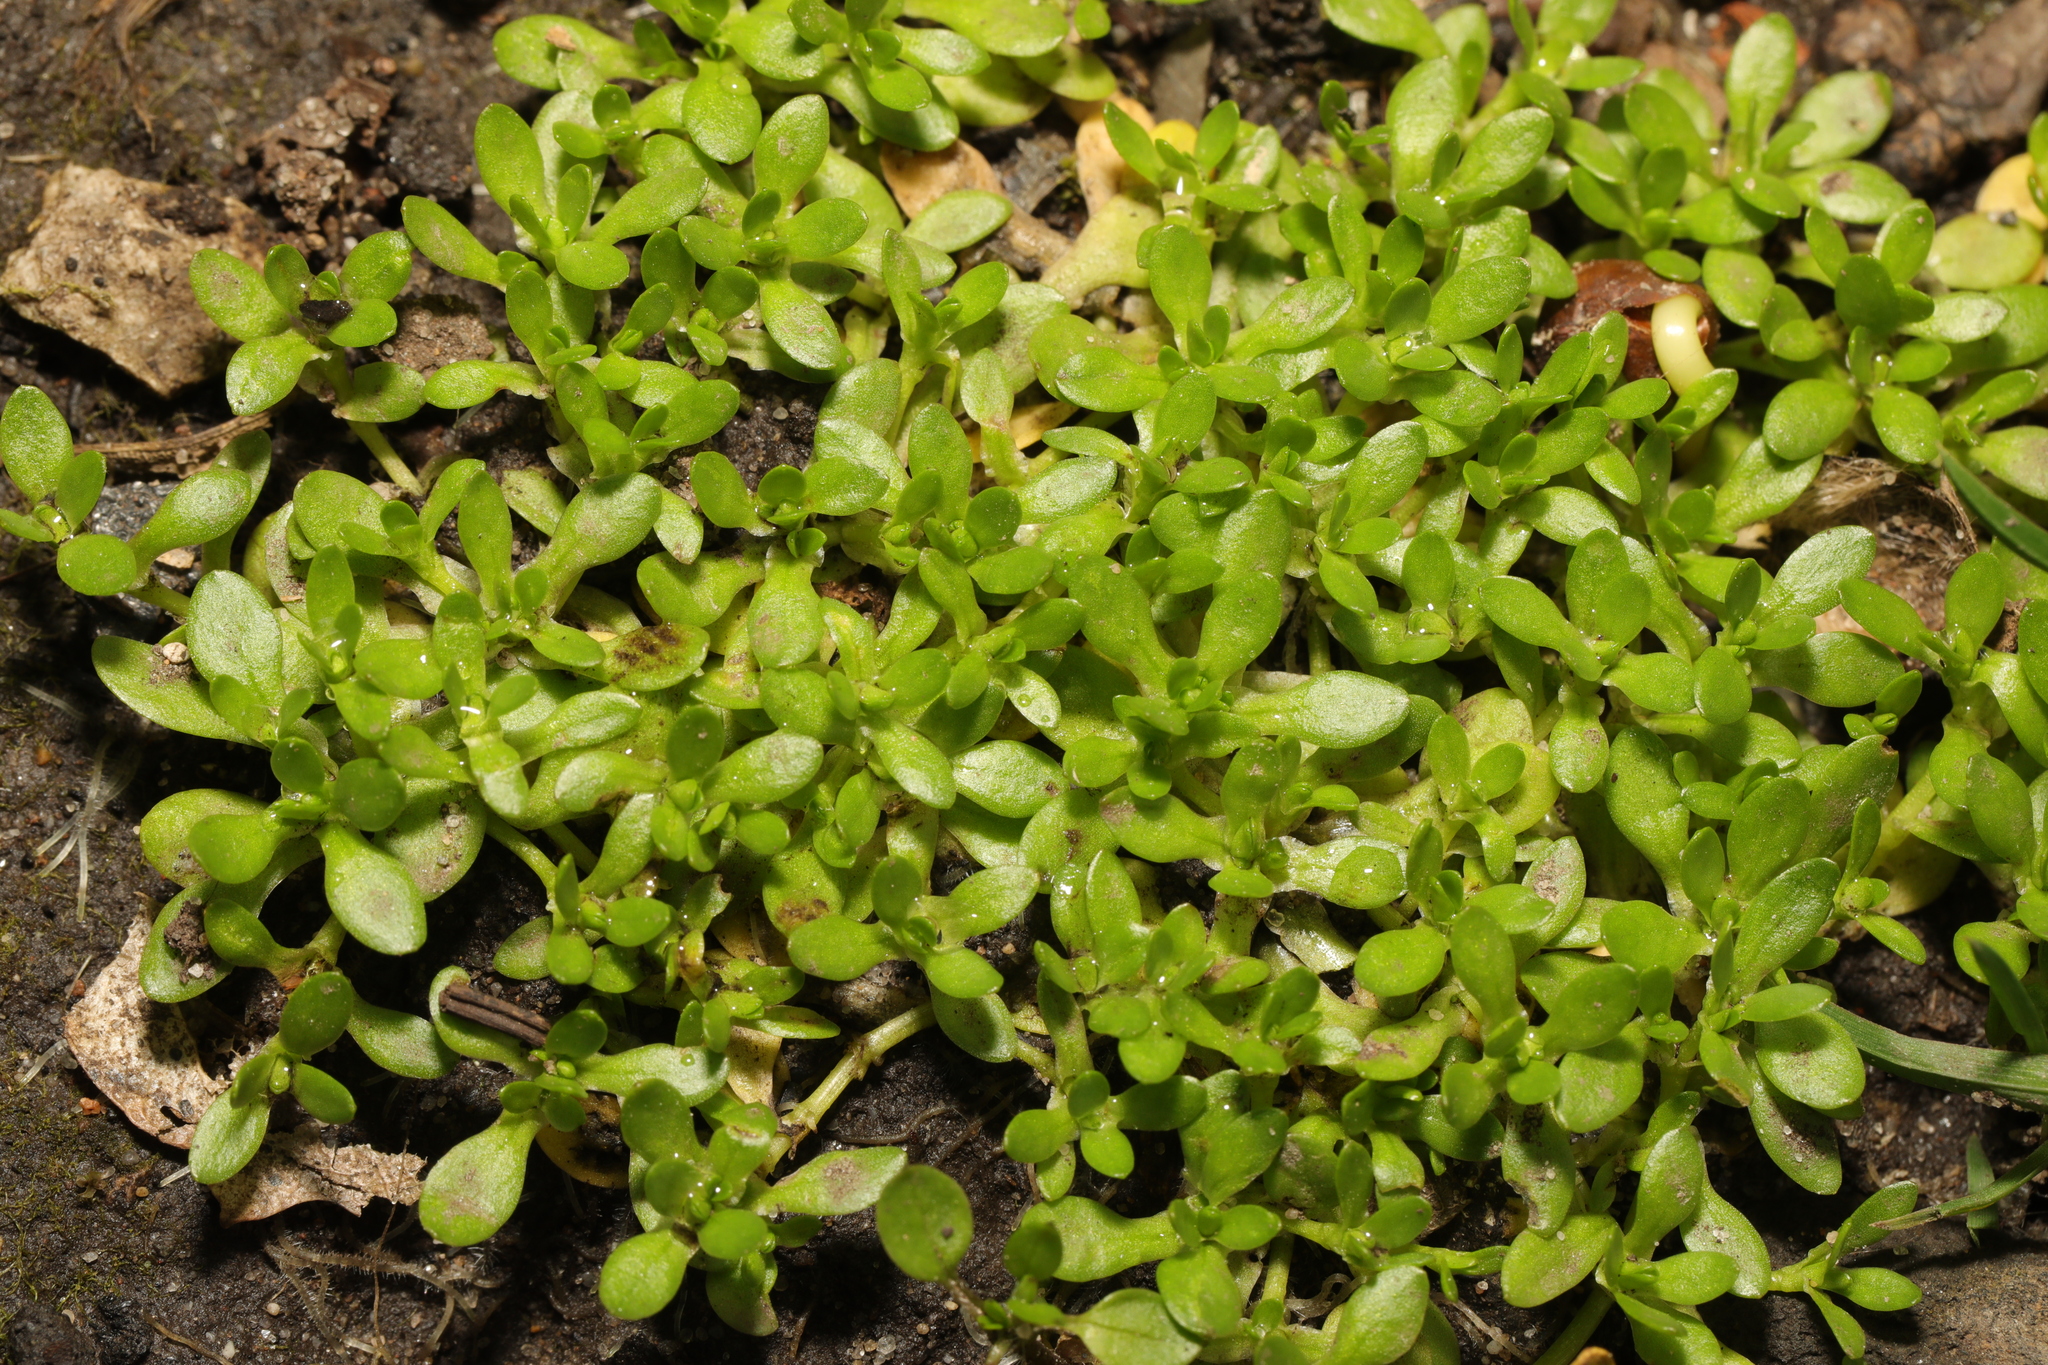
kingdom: Plantae
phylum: Tracheophyta
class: Magnoliopsida
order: Caryophyllales
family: Montiaceae
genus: Montia
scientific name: Montia fontana
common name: Blinks
